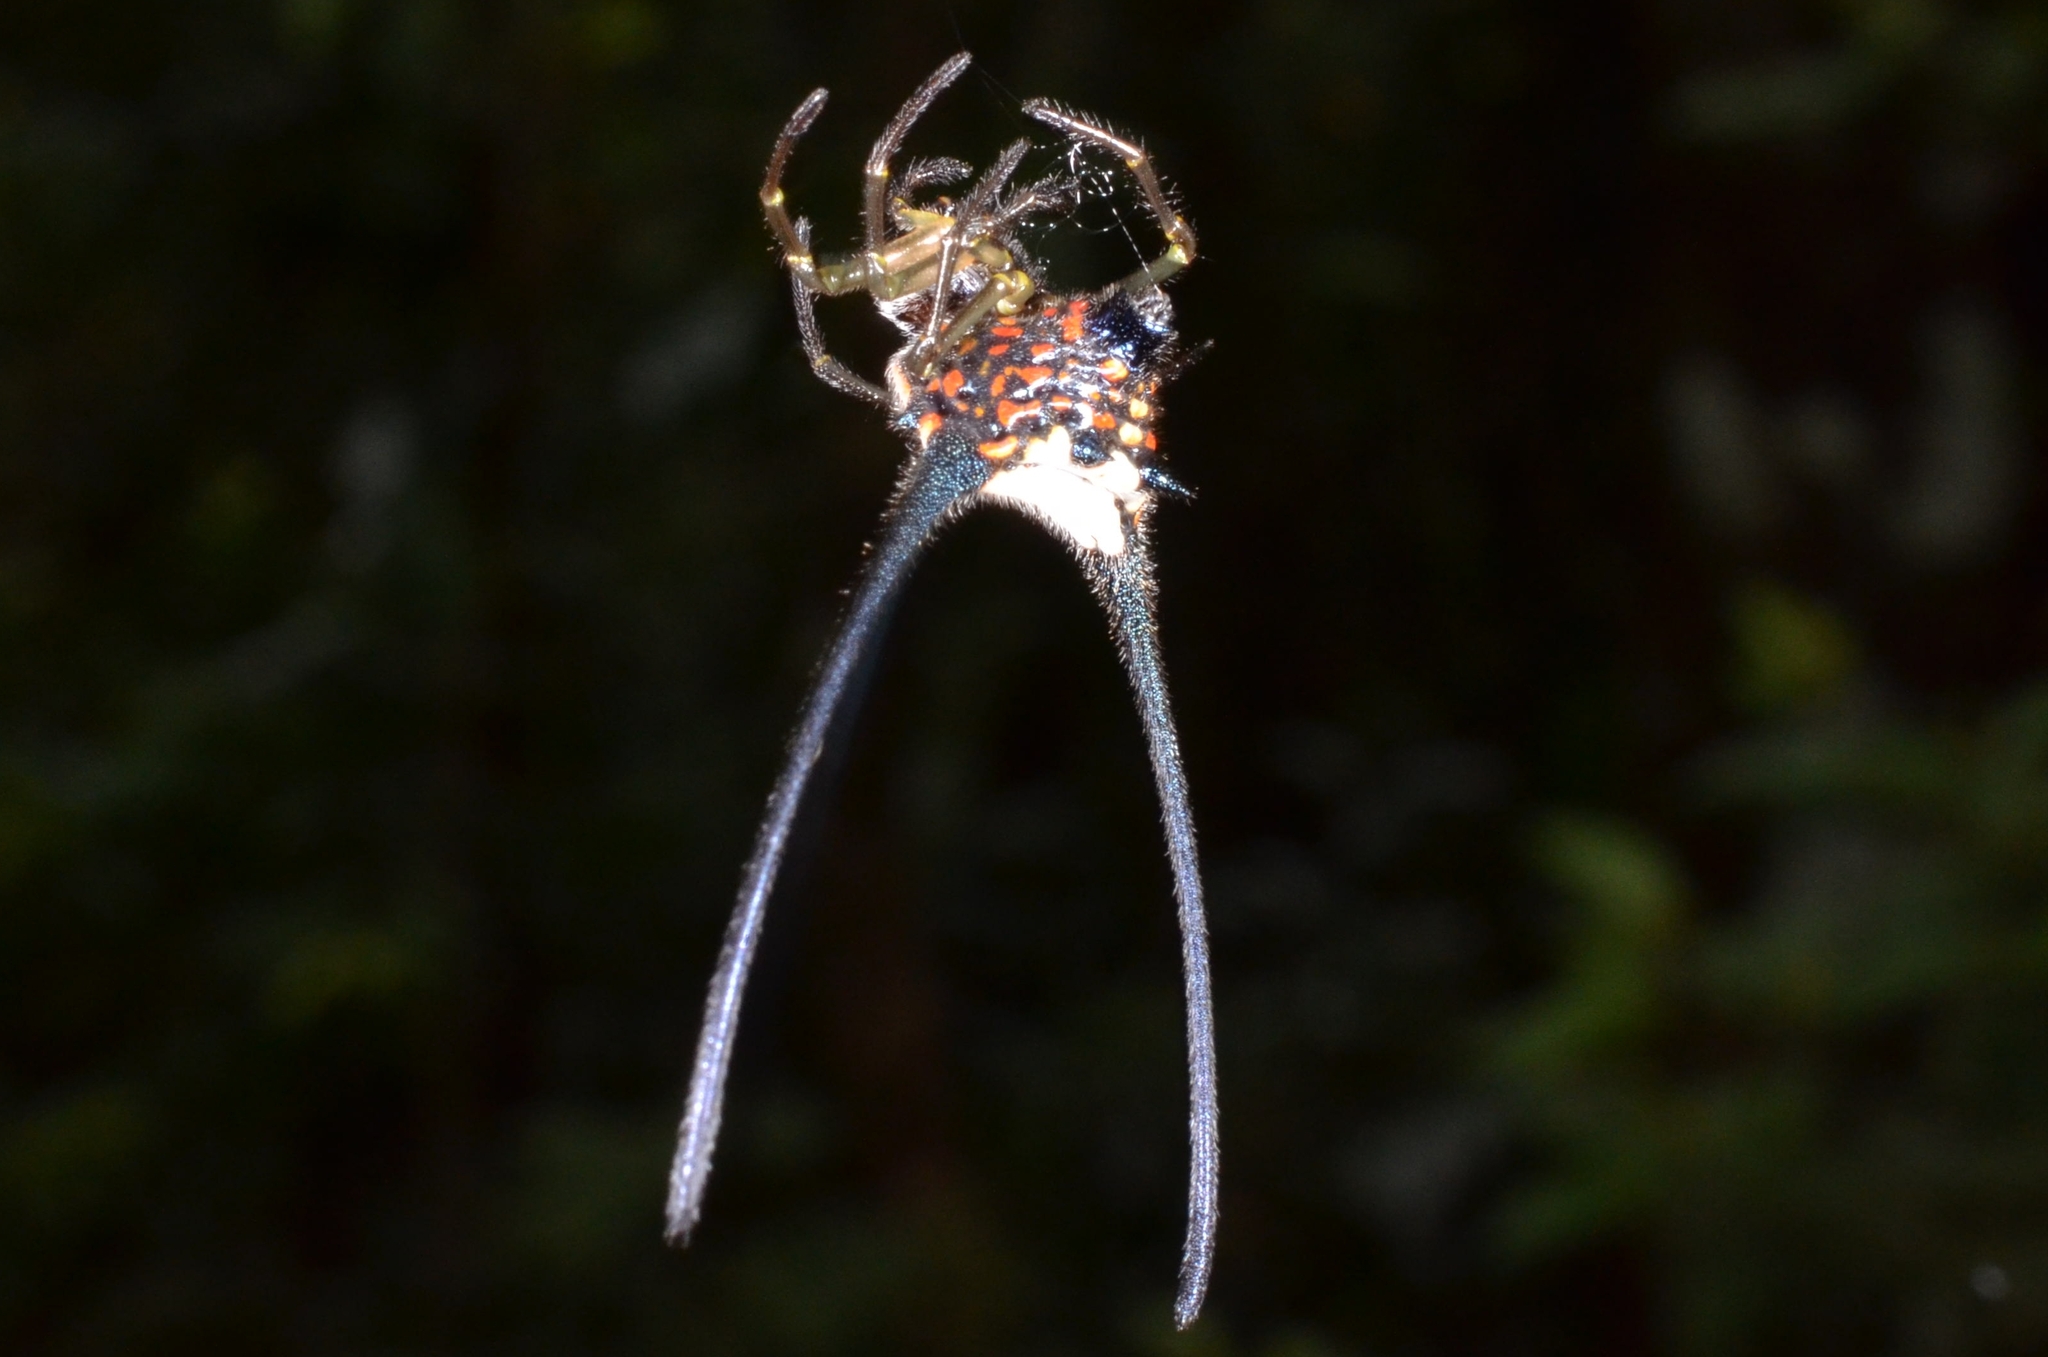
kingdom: Animalia
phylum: Arthropoda
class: Arachnida
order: Araneae
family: Araneidae
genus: Macracantha
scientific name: Macracantha arcuata
